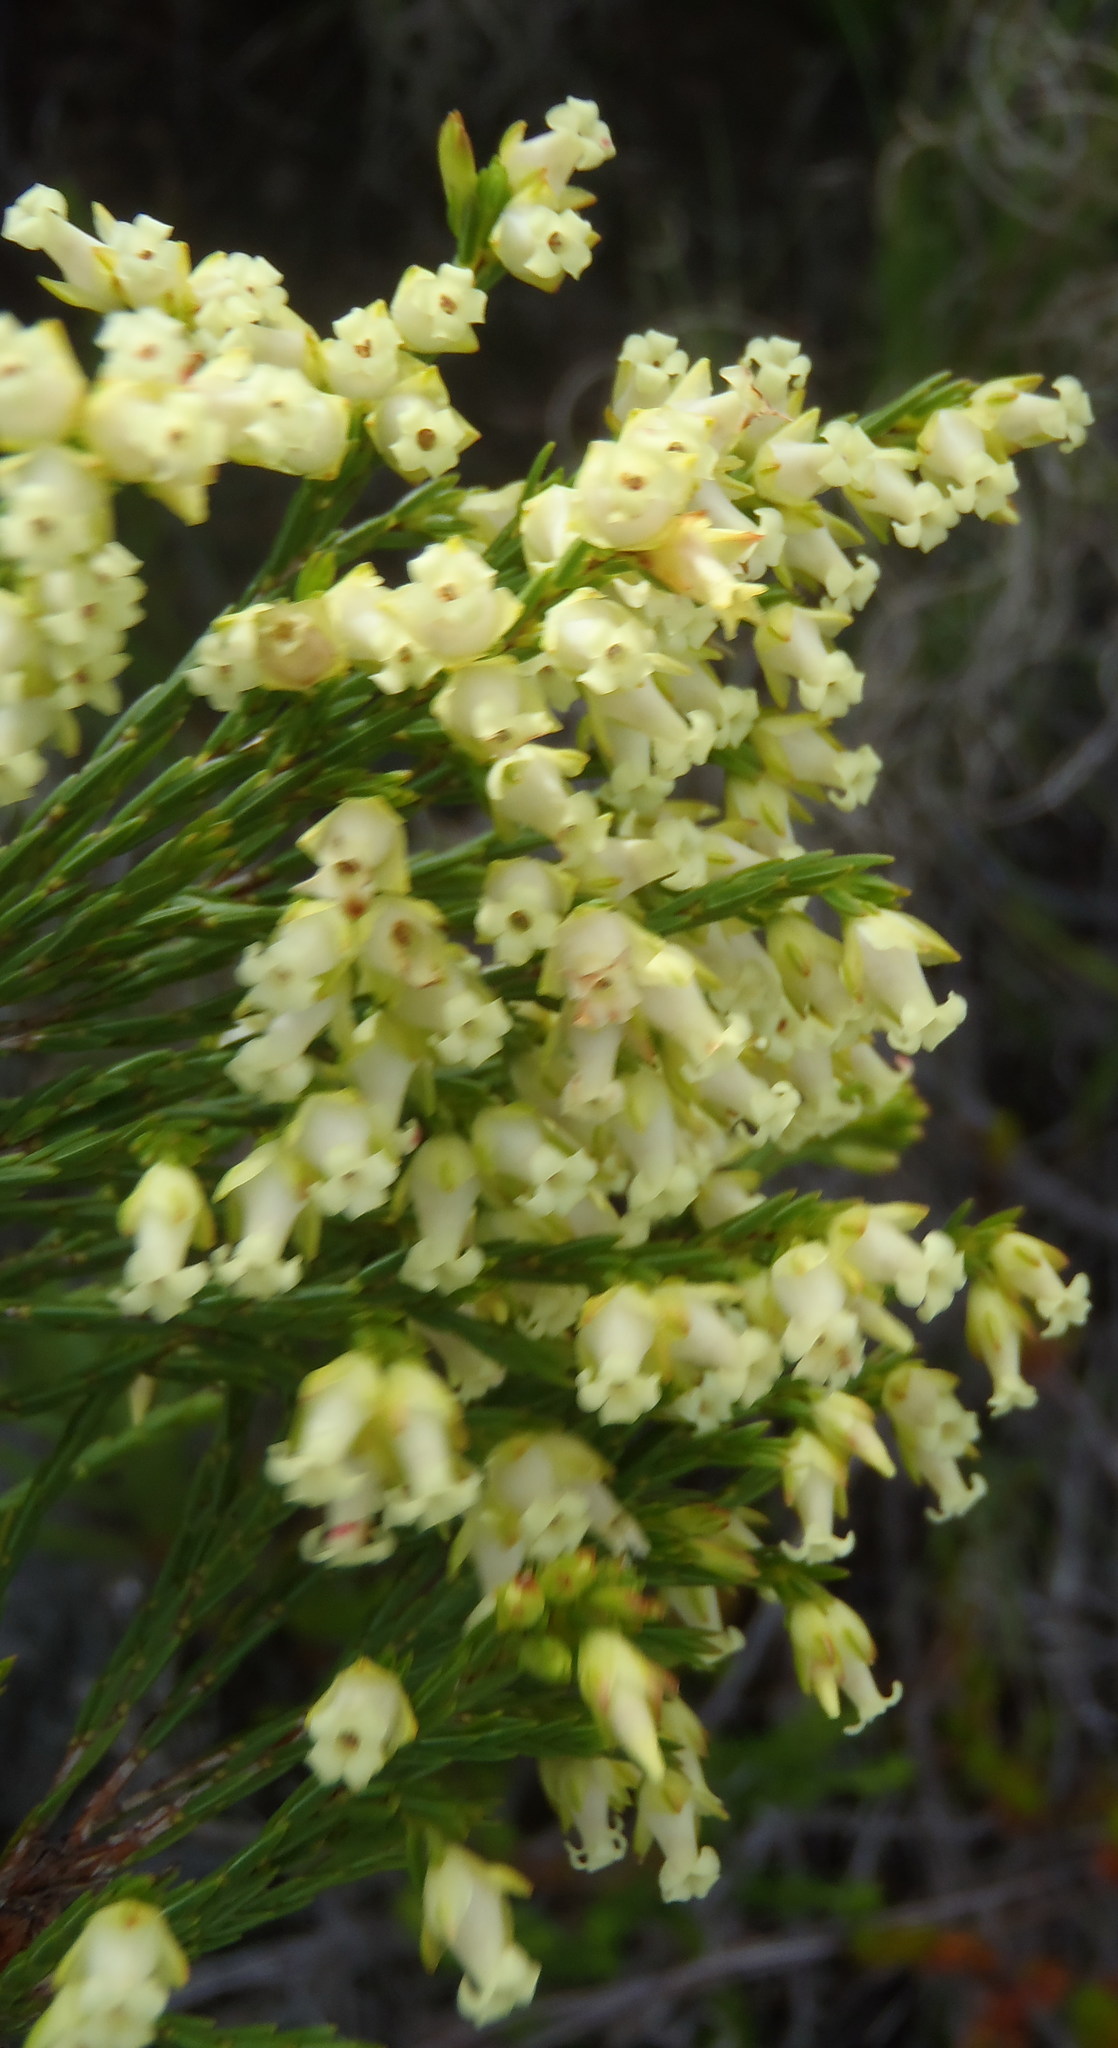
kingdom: Plantae
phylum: Tracheophyta
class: Magnoliopsida
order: Ericales
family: Ericaceae
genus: Erica
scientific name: Erica lutea
